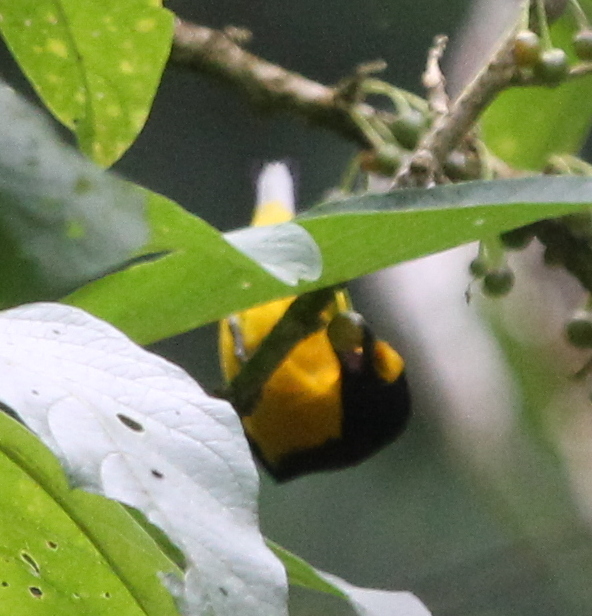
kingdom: Animalia
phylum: Chordata
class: Aves
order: Passeriformes
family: Fringillidae
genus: Euphonia
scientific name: Euphonia violacea
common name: Violaceous euphonia
